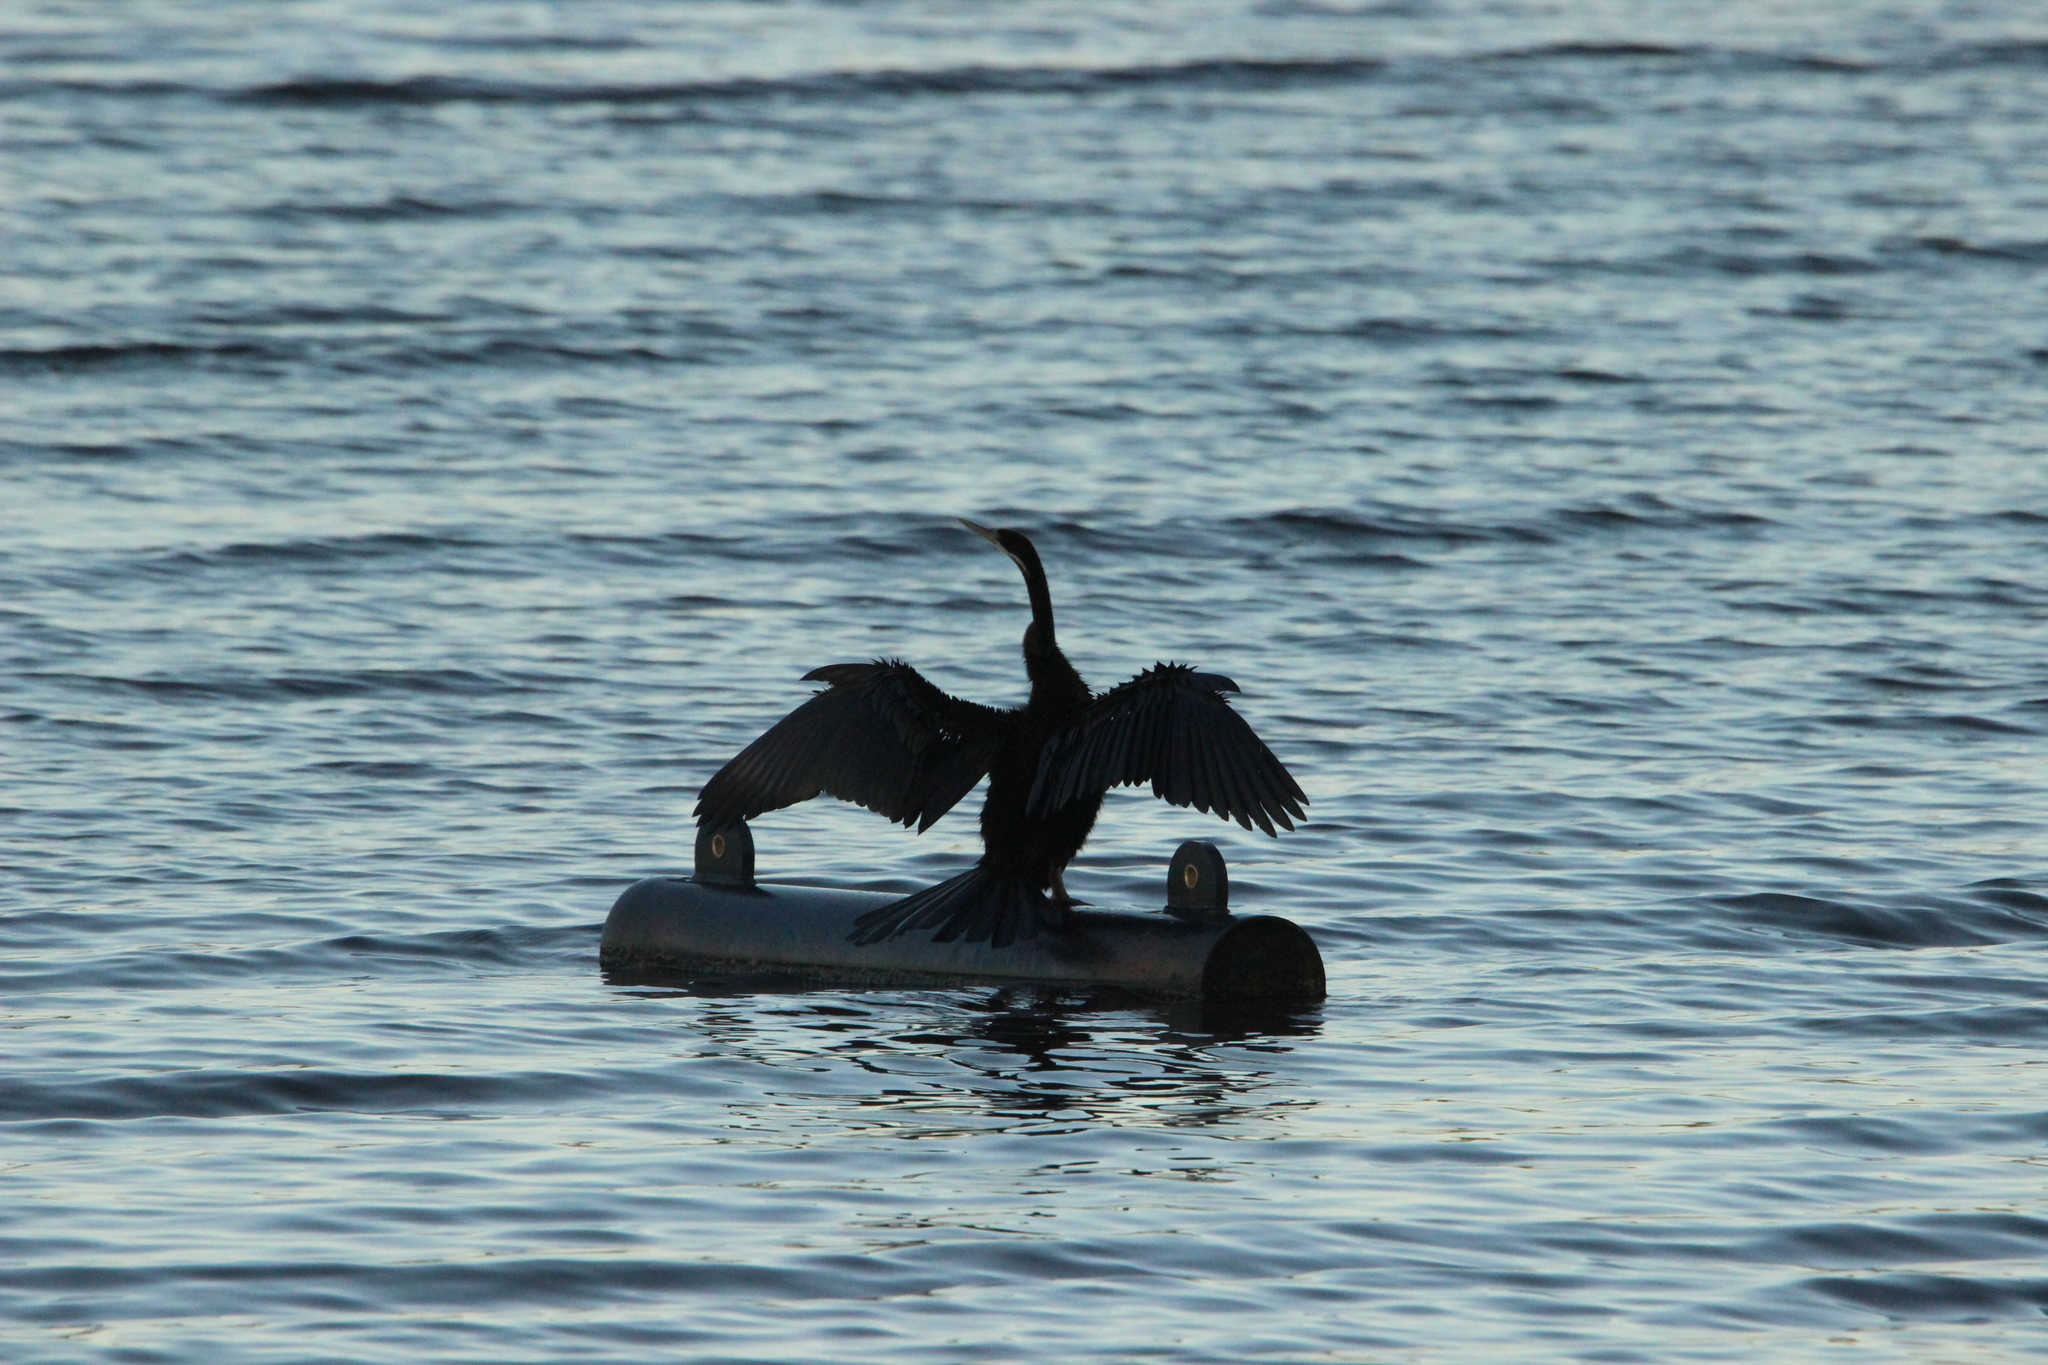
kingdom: Animalia
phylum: Chordata
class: Aves
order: Suliformes
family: Anhingidae
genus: Anhinga
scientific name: Anhinga novaehollandiae
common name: Australasian darter
